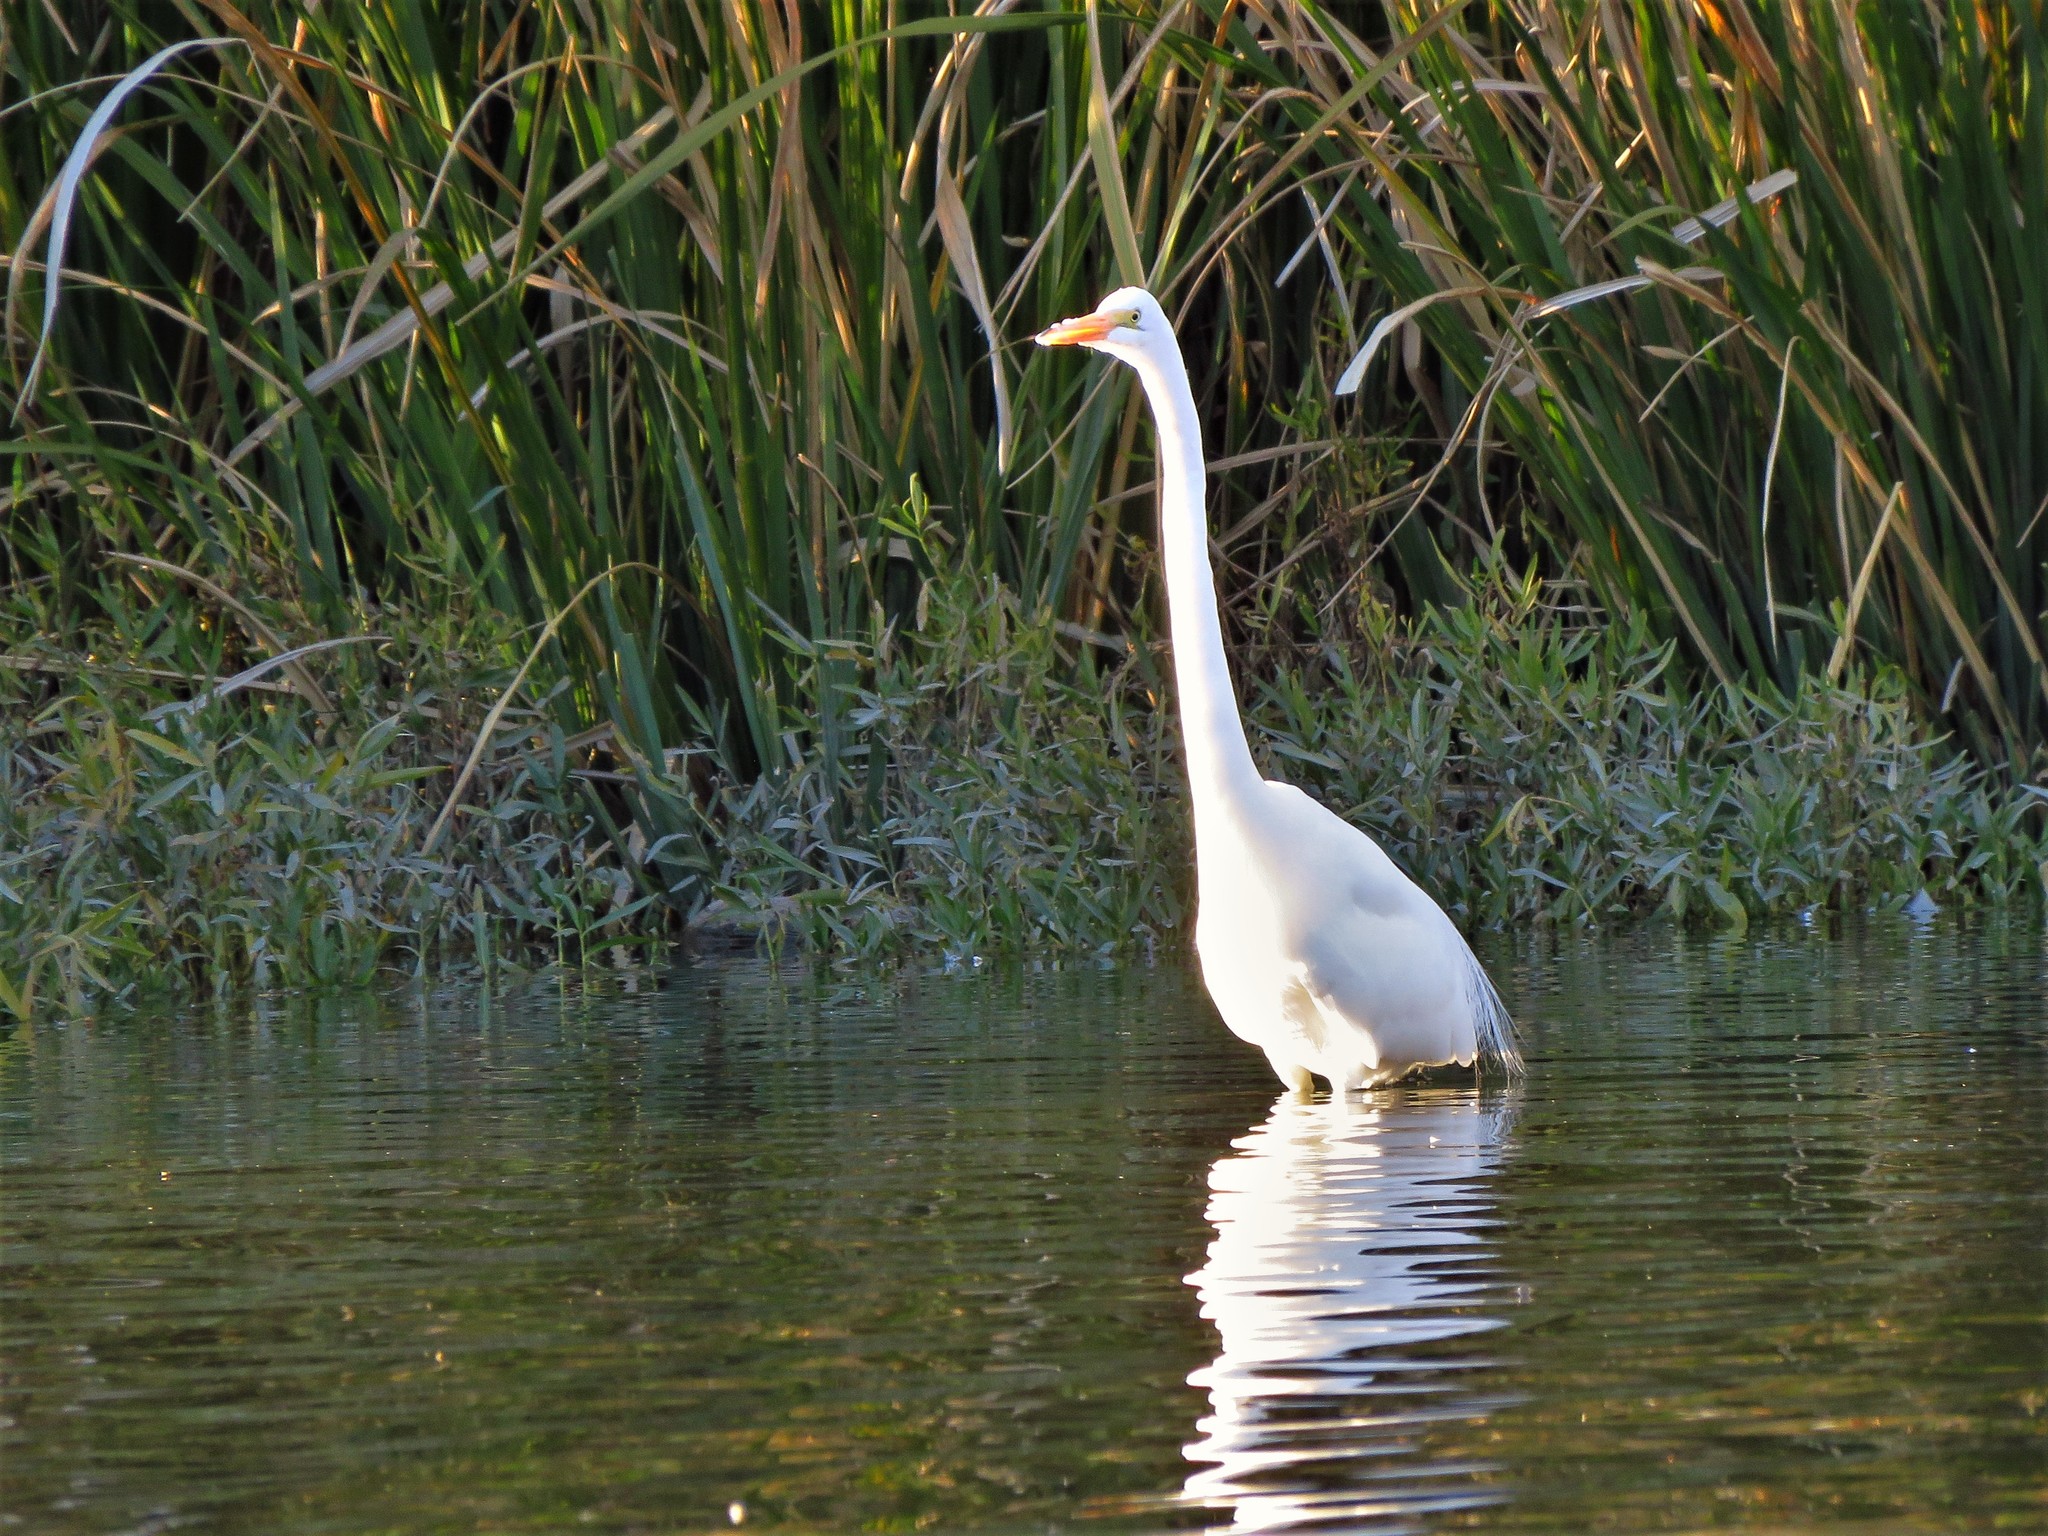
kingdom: Animalia
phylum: Chordata
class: Aves
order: Pelecaniformes
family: Ardeidae
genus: Ardea
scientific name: Ardea alba
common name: Great egret
